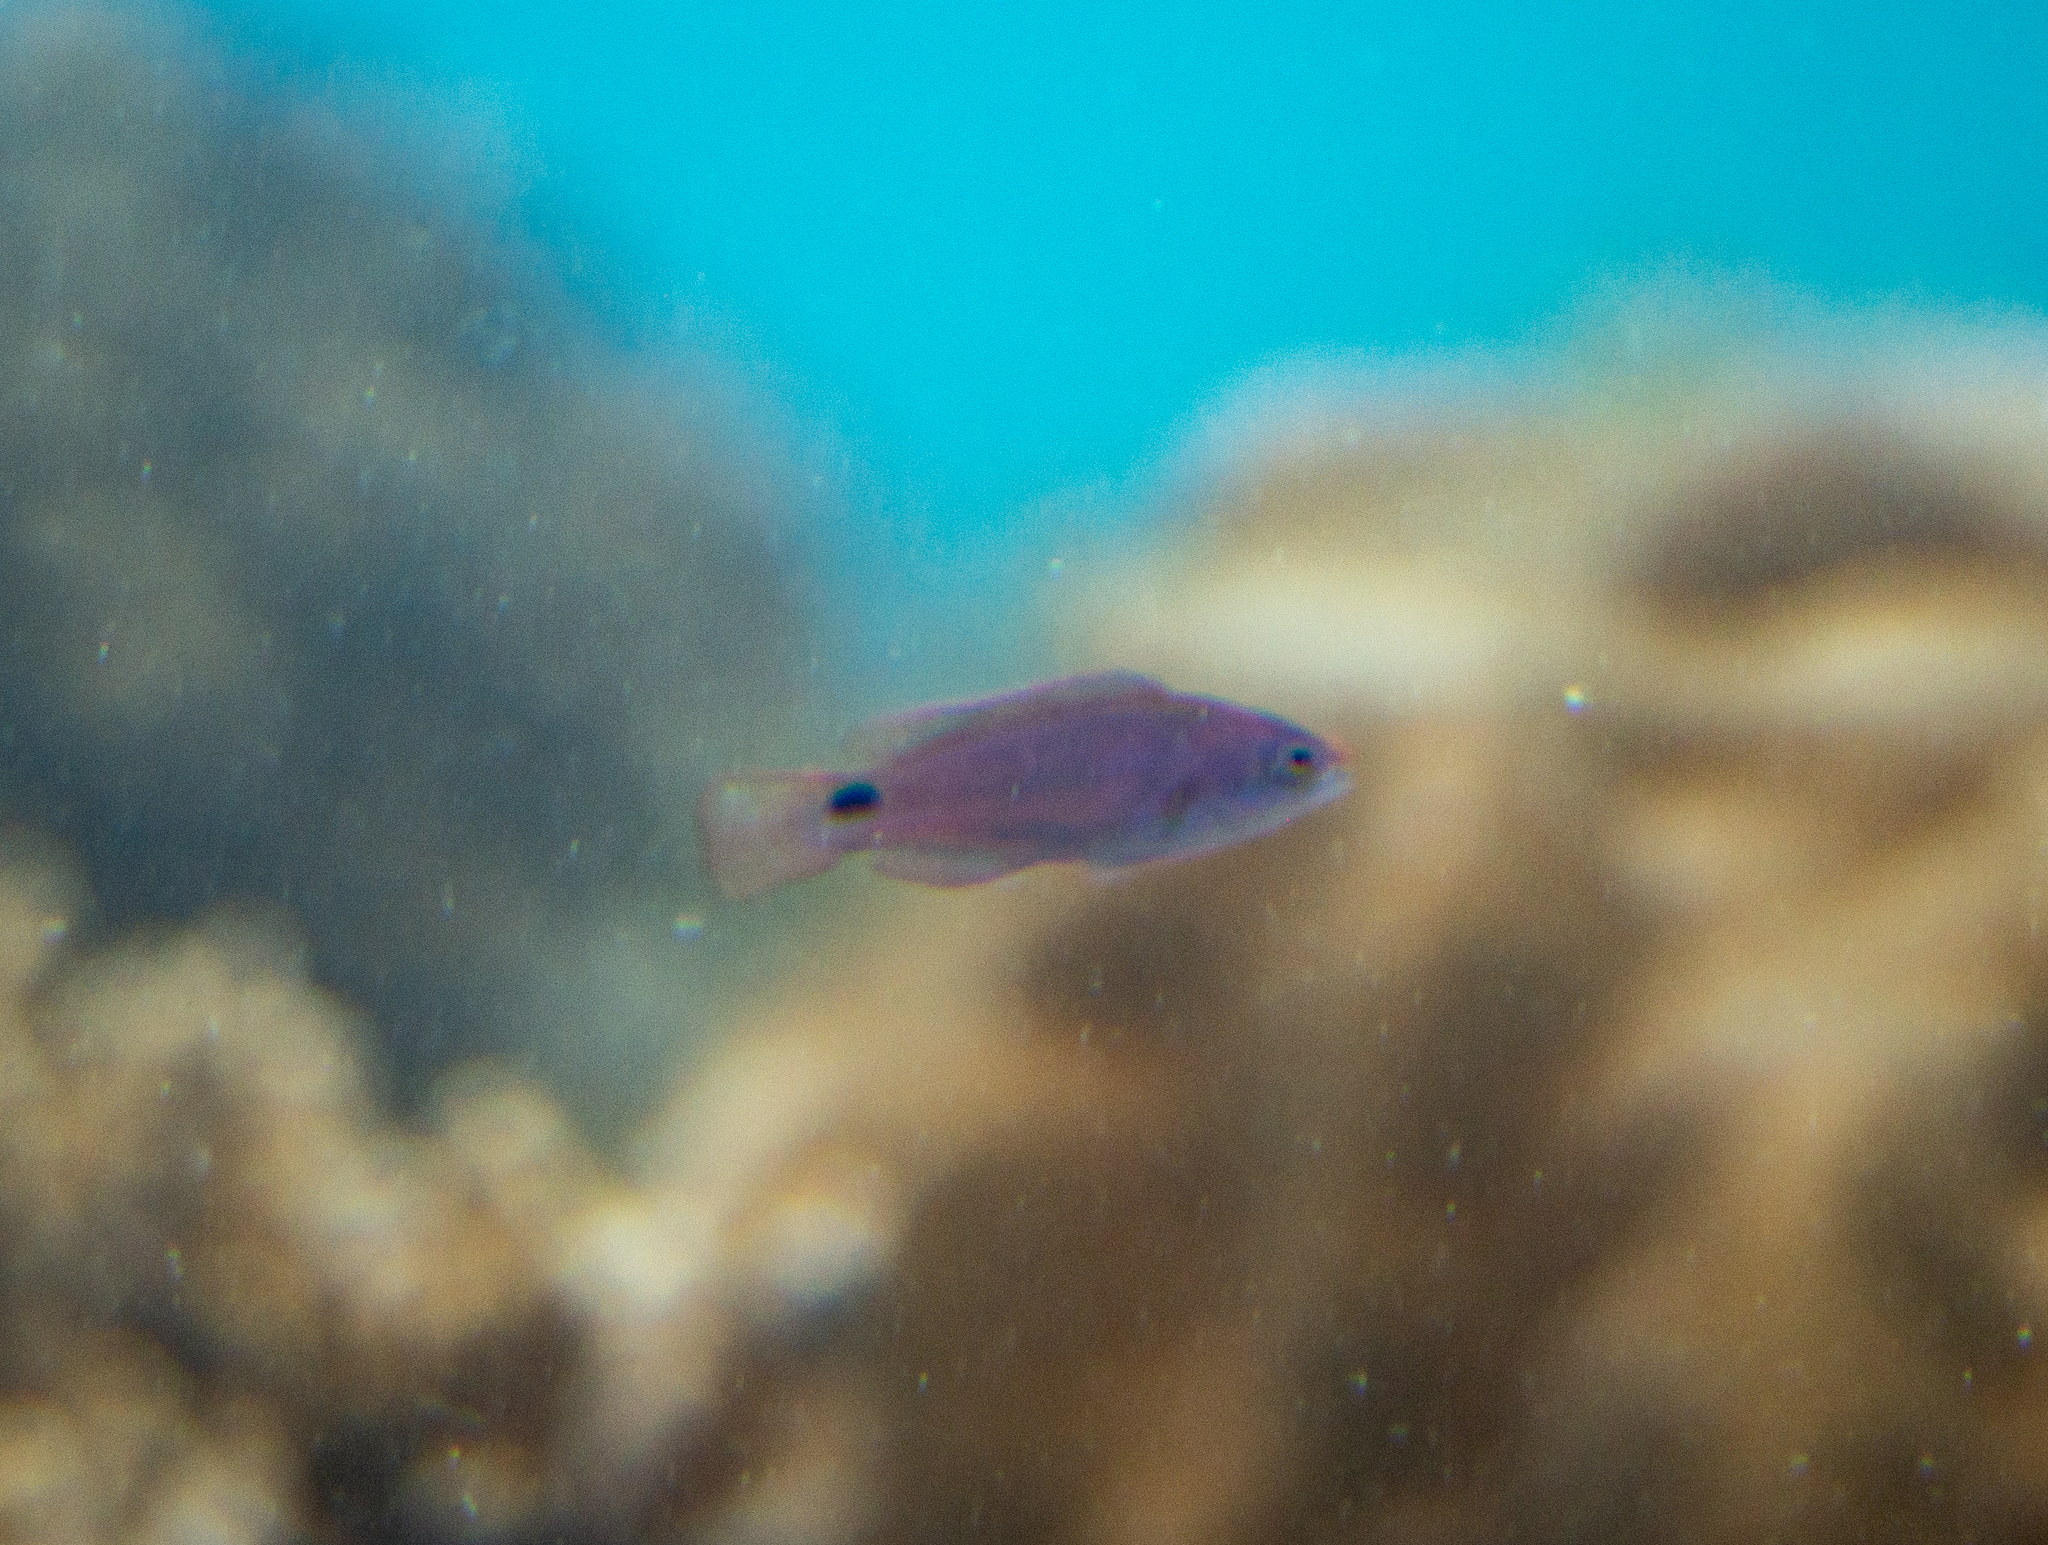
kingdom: Animalia
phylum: Chordata
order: Perciformes
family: Labridae
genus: Cirrhilabrus
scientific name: Cirrhilabrus exquisitus
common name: Exquisite wrasse
